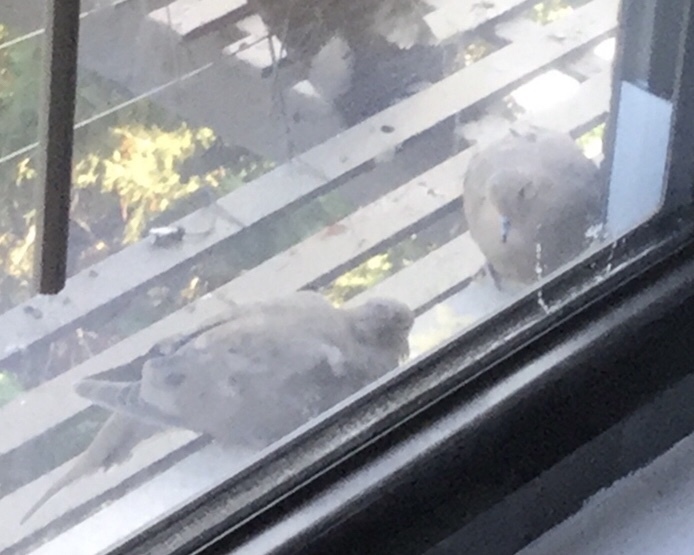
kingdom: Animalia
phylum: Chordata
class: Aves
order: Columbiformes
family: Columbidae
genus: Zenaida
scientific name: Zenaida macroura
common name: Mourning dove
